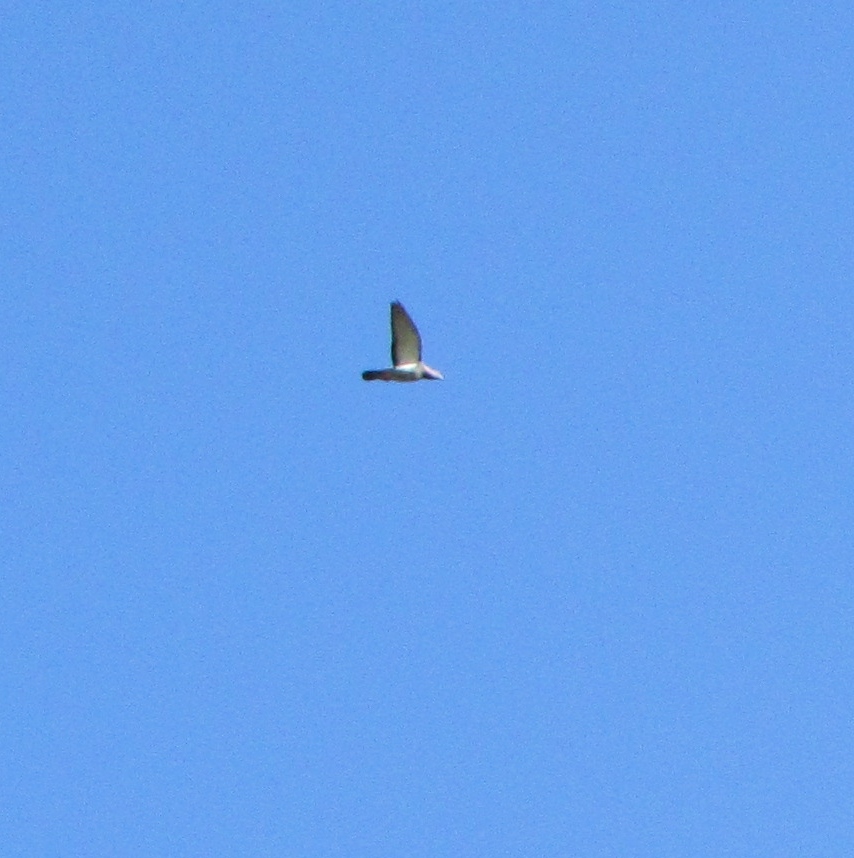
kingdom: Animalia
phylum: Chordata
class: Aves
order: Columbiformes
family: Columbidae
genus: Columba
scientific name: Columba livia
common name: Rock pigeon
